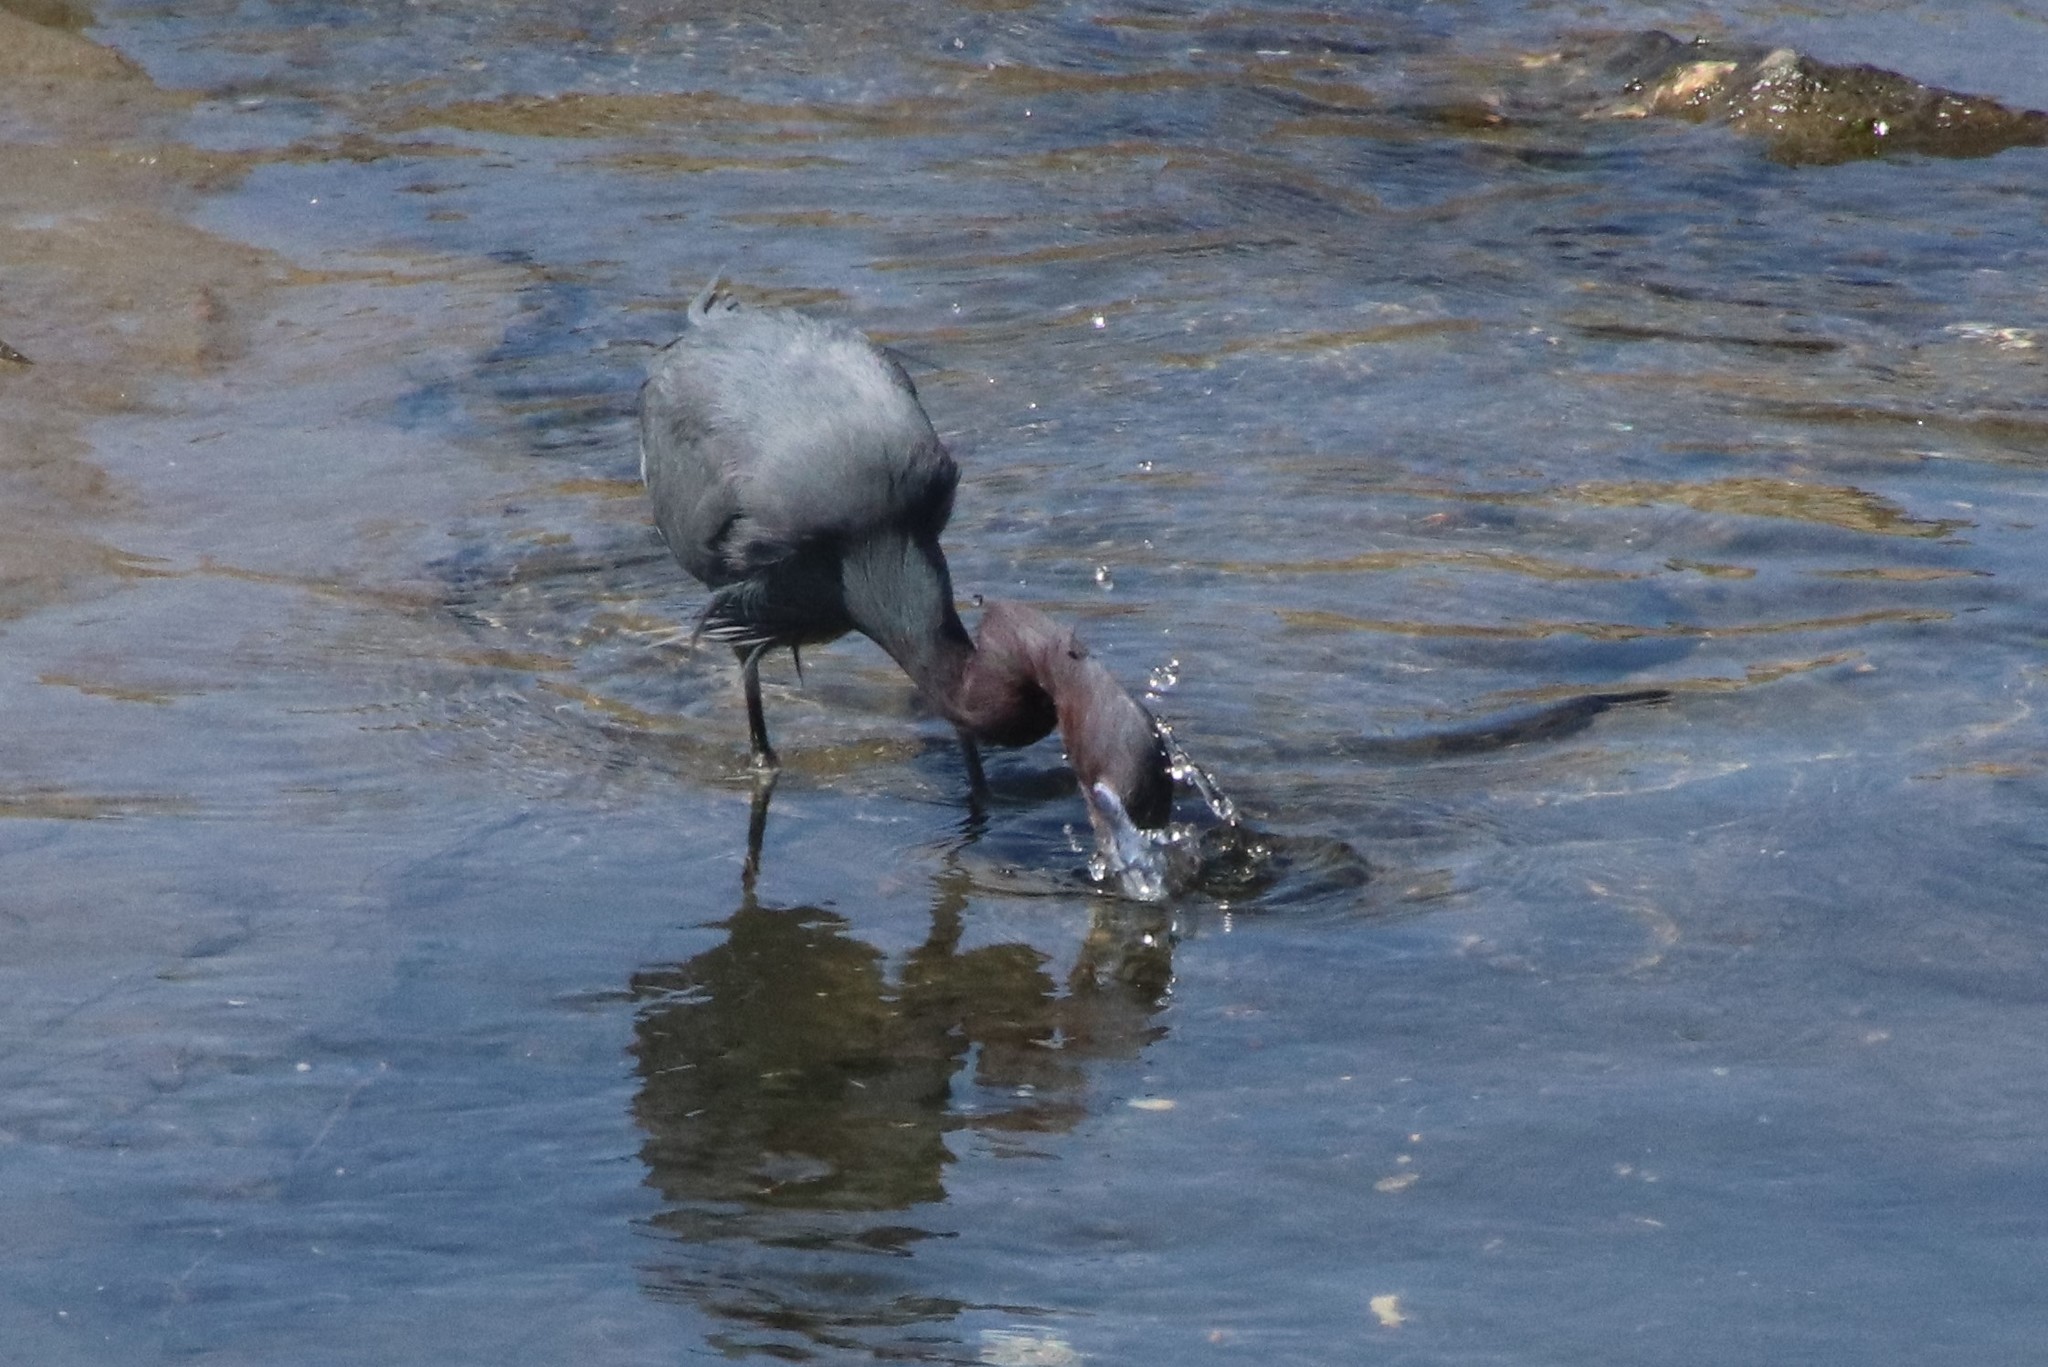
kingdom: Animalia
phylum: Chordata
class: Aves
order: Pelecaniformes
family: Ardeidae
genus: Egretta
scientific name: Egretta caerulea
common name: Little blue heron
